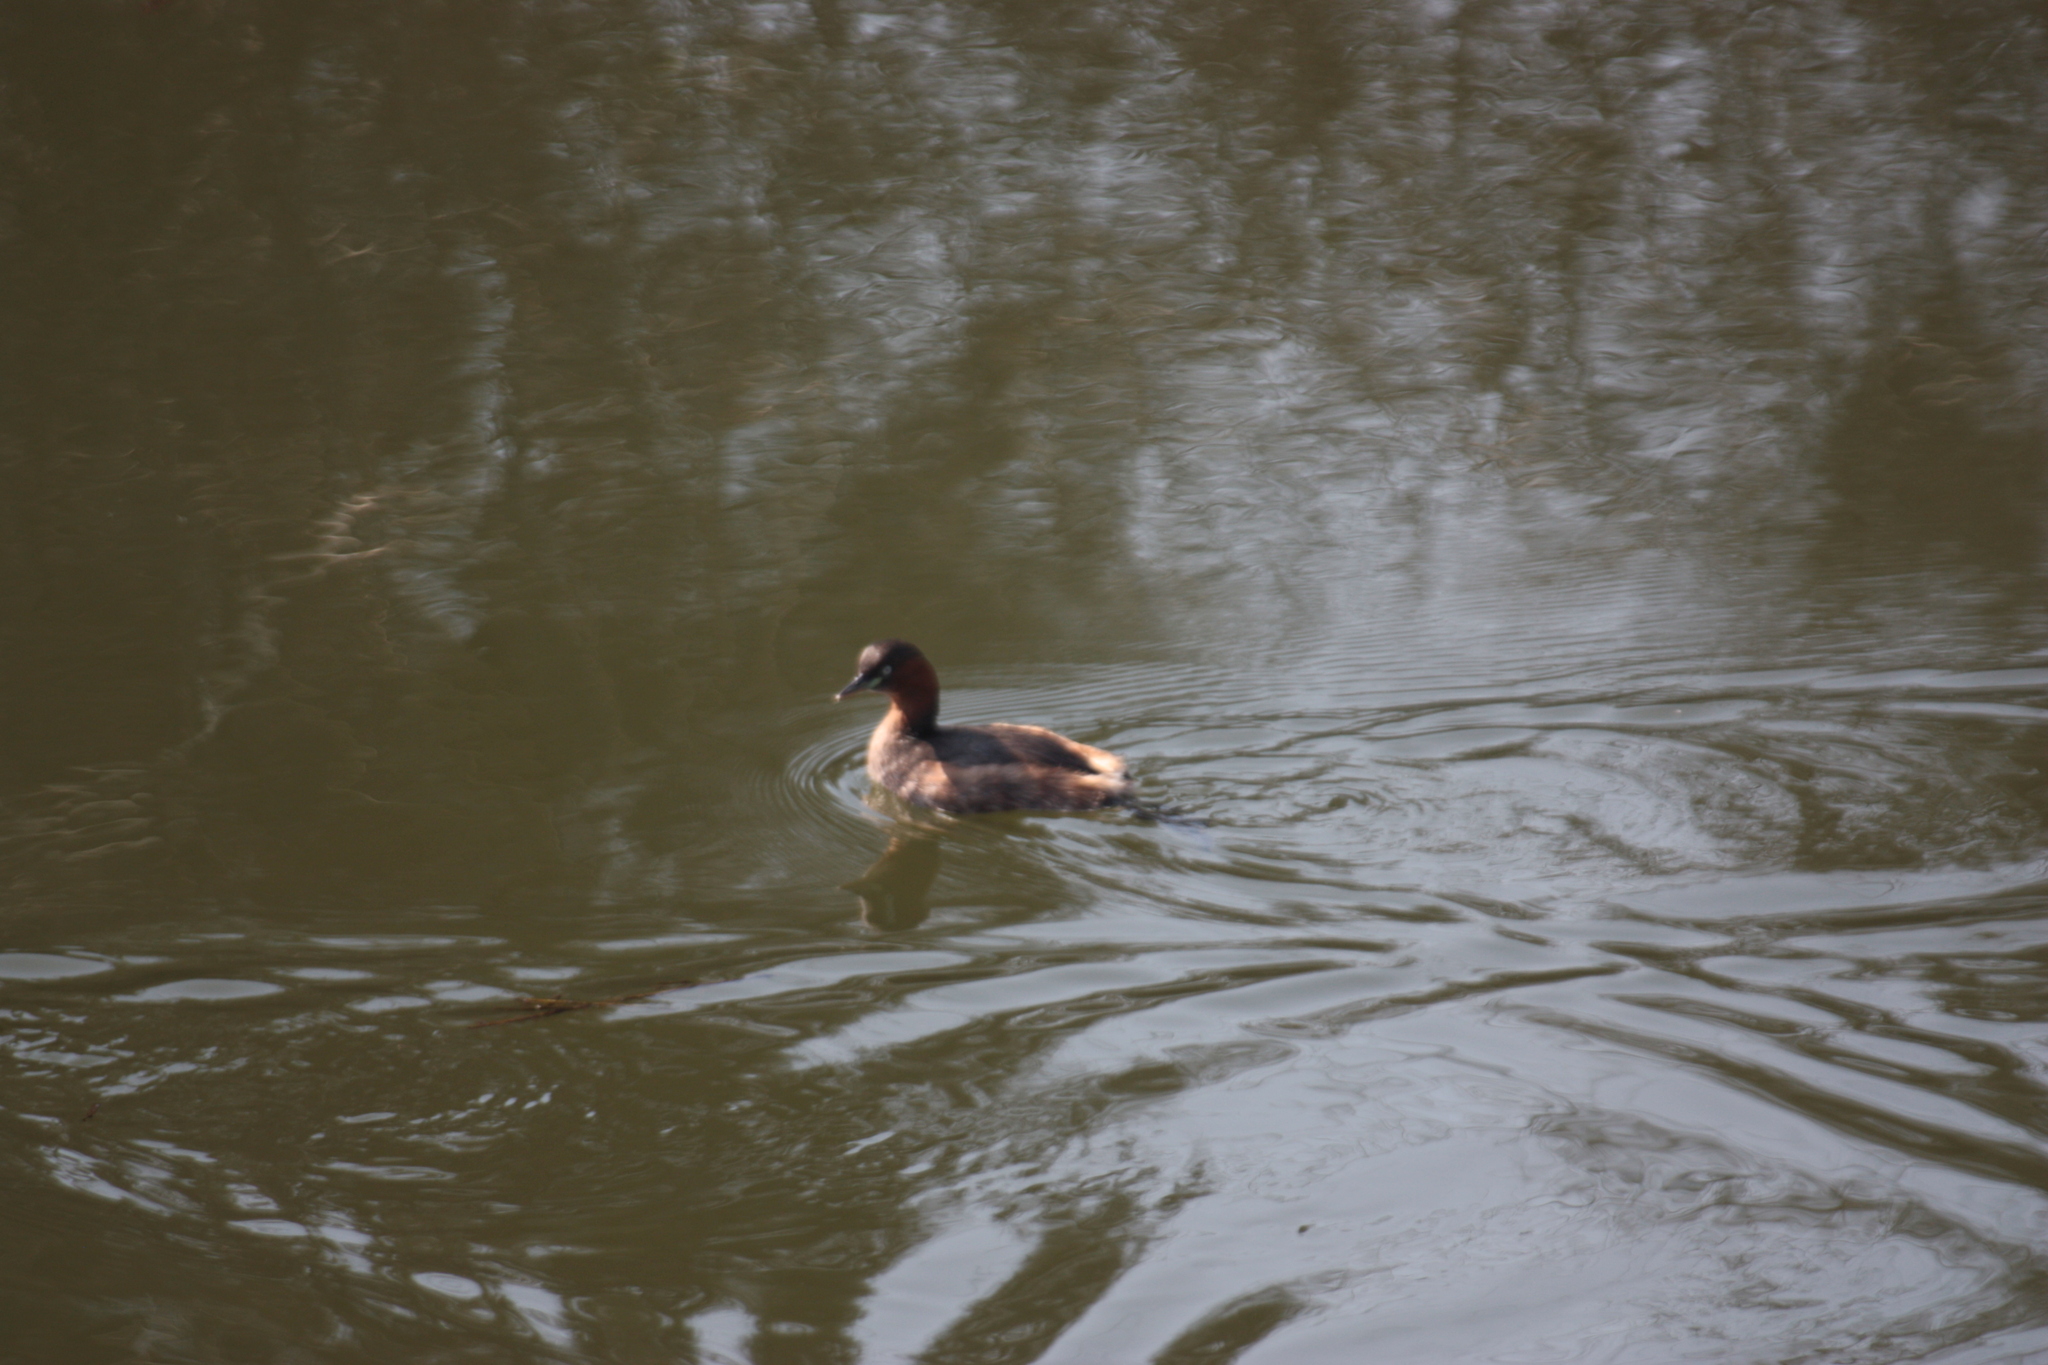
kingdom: Animalia
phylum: Chordata
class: Aves
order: Podicipediformes
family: Podicipedidae
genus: Tachybaptus
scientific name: Tachybaptus ruficollis
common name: Little grebe
